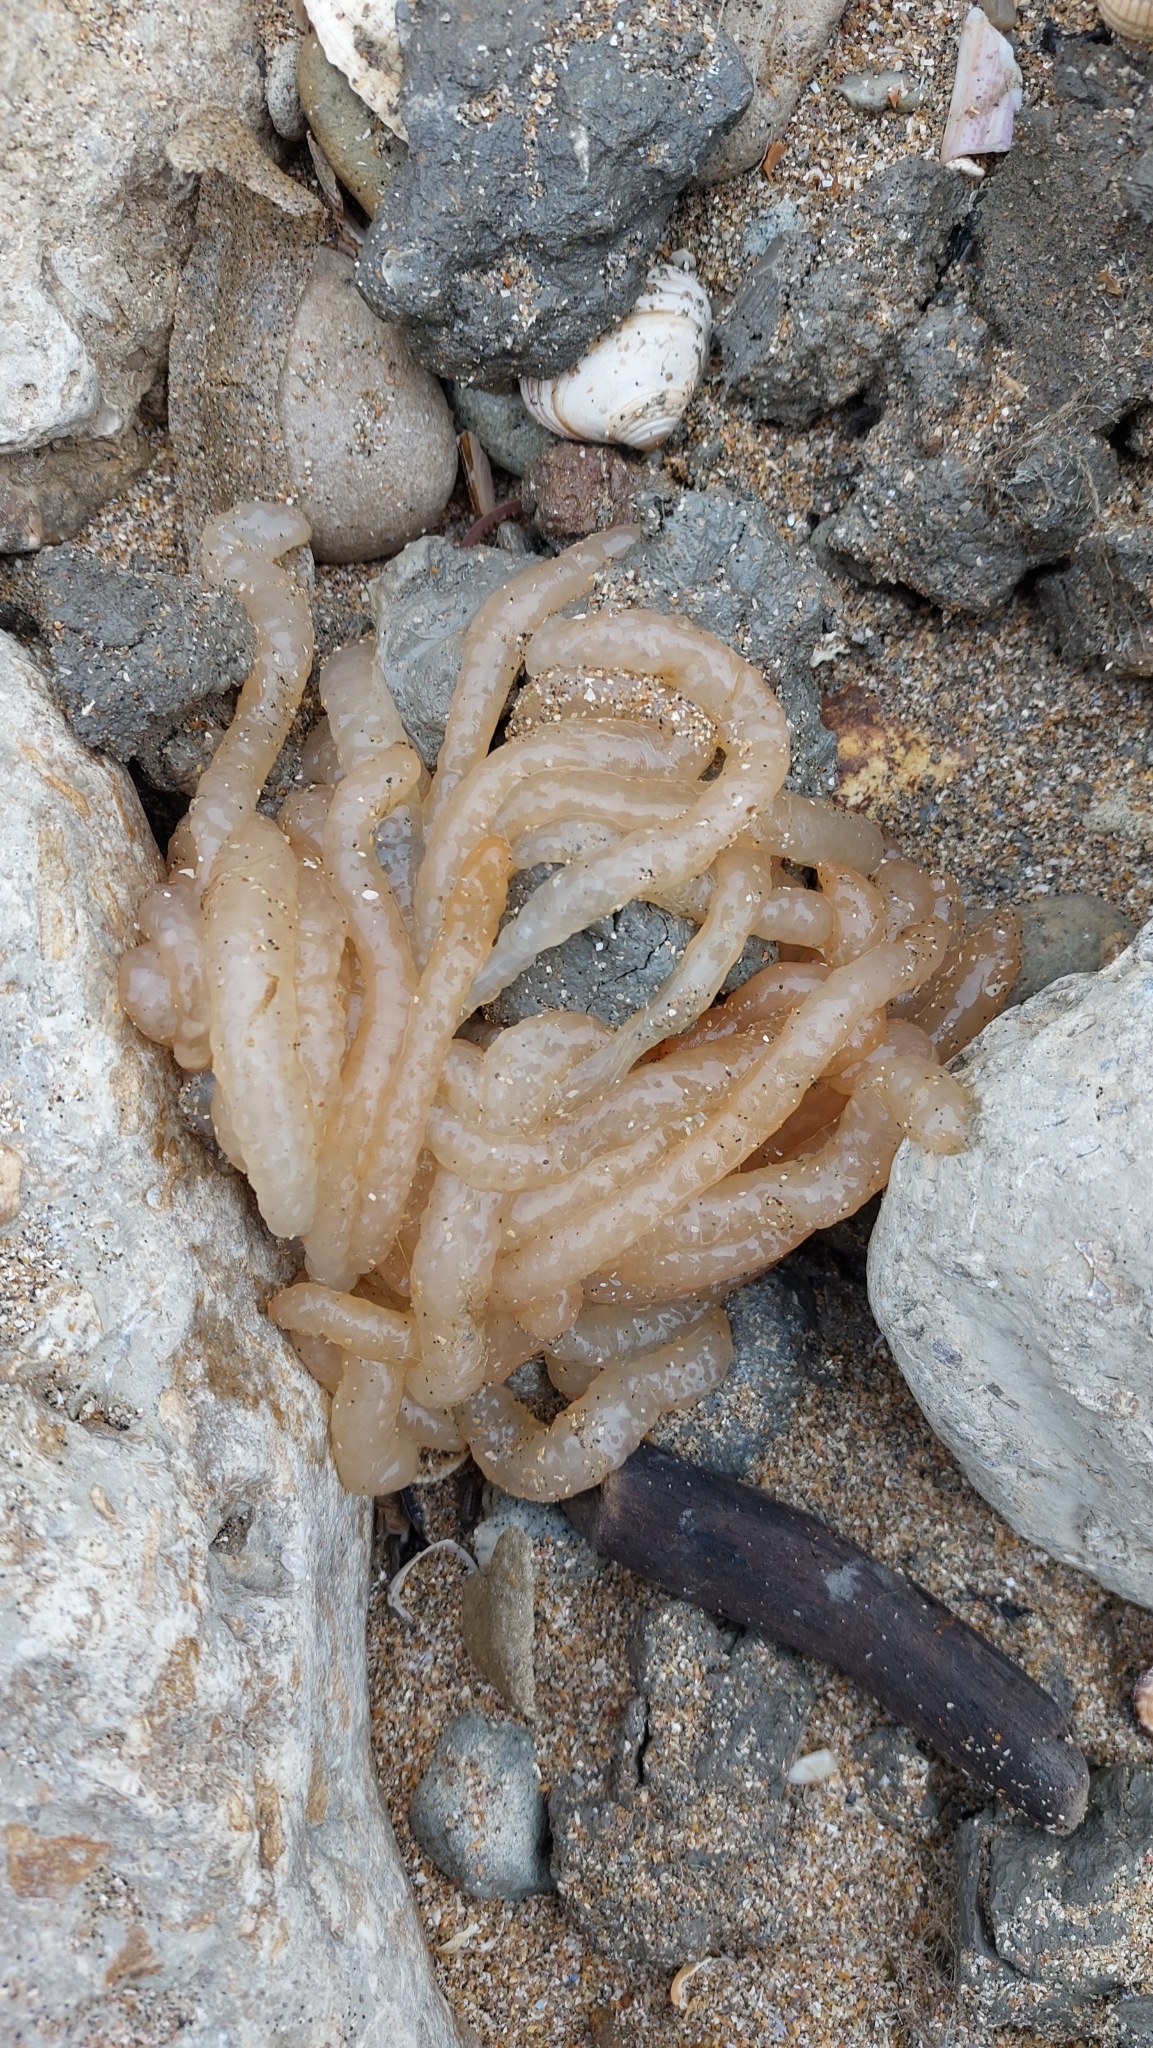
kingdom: Animalia
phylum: Mollusca
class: Cephalopoda
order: Myopsida
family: Loliginidae
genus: Loligo
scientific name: Loligo vulgaris
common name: European squid
